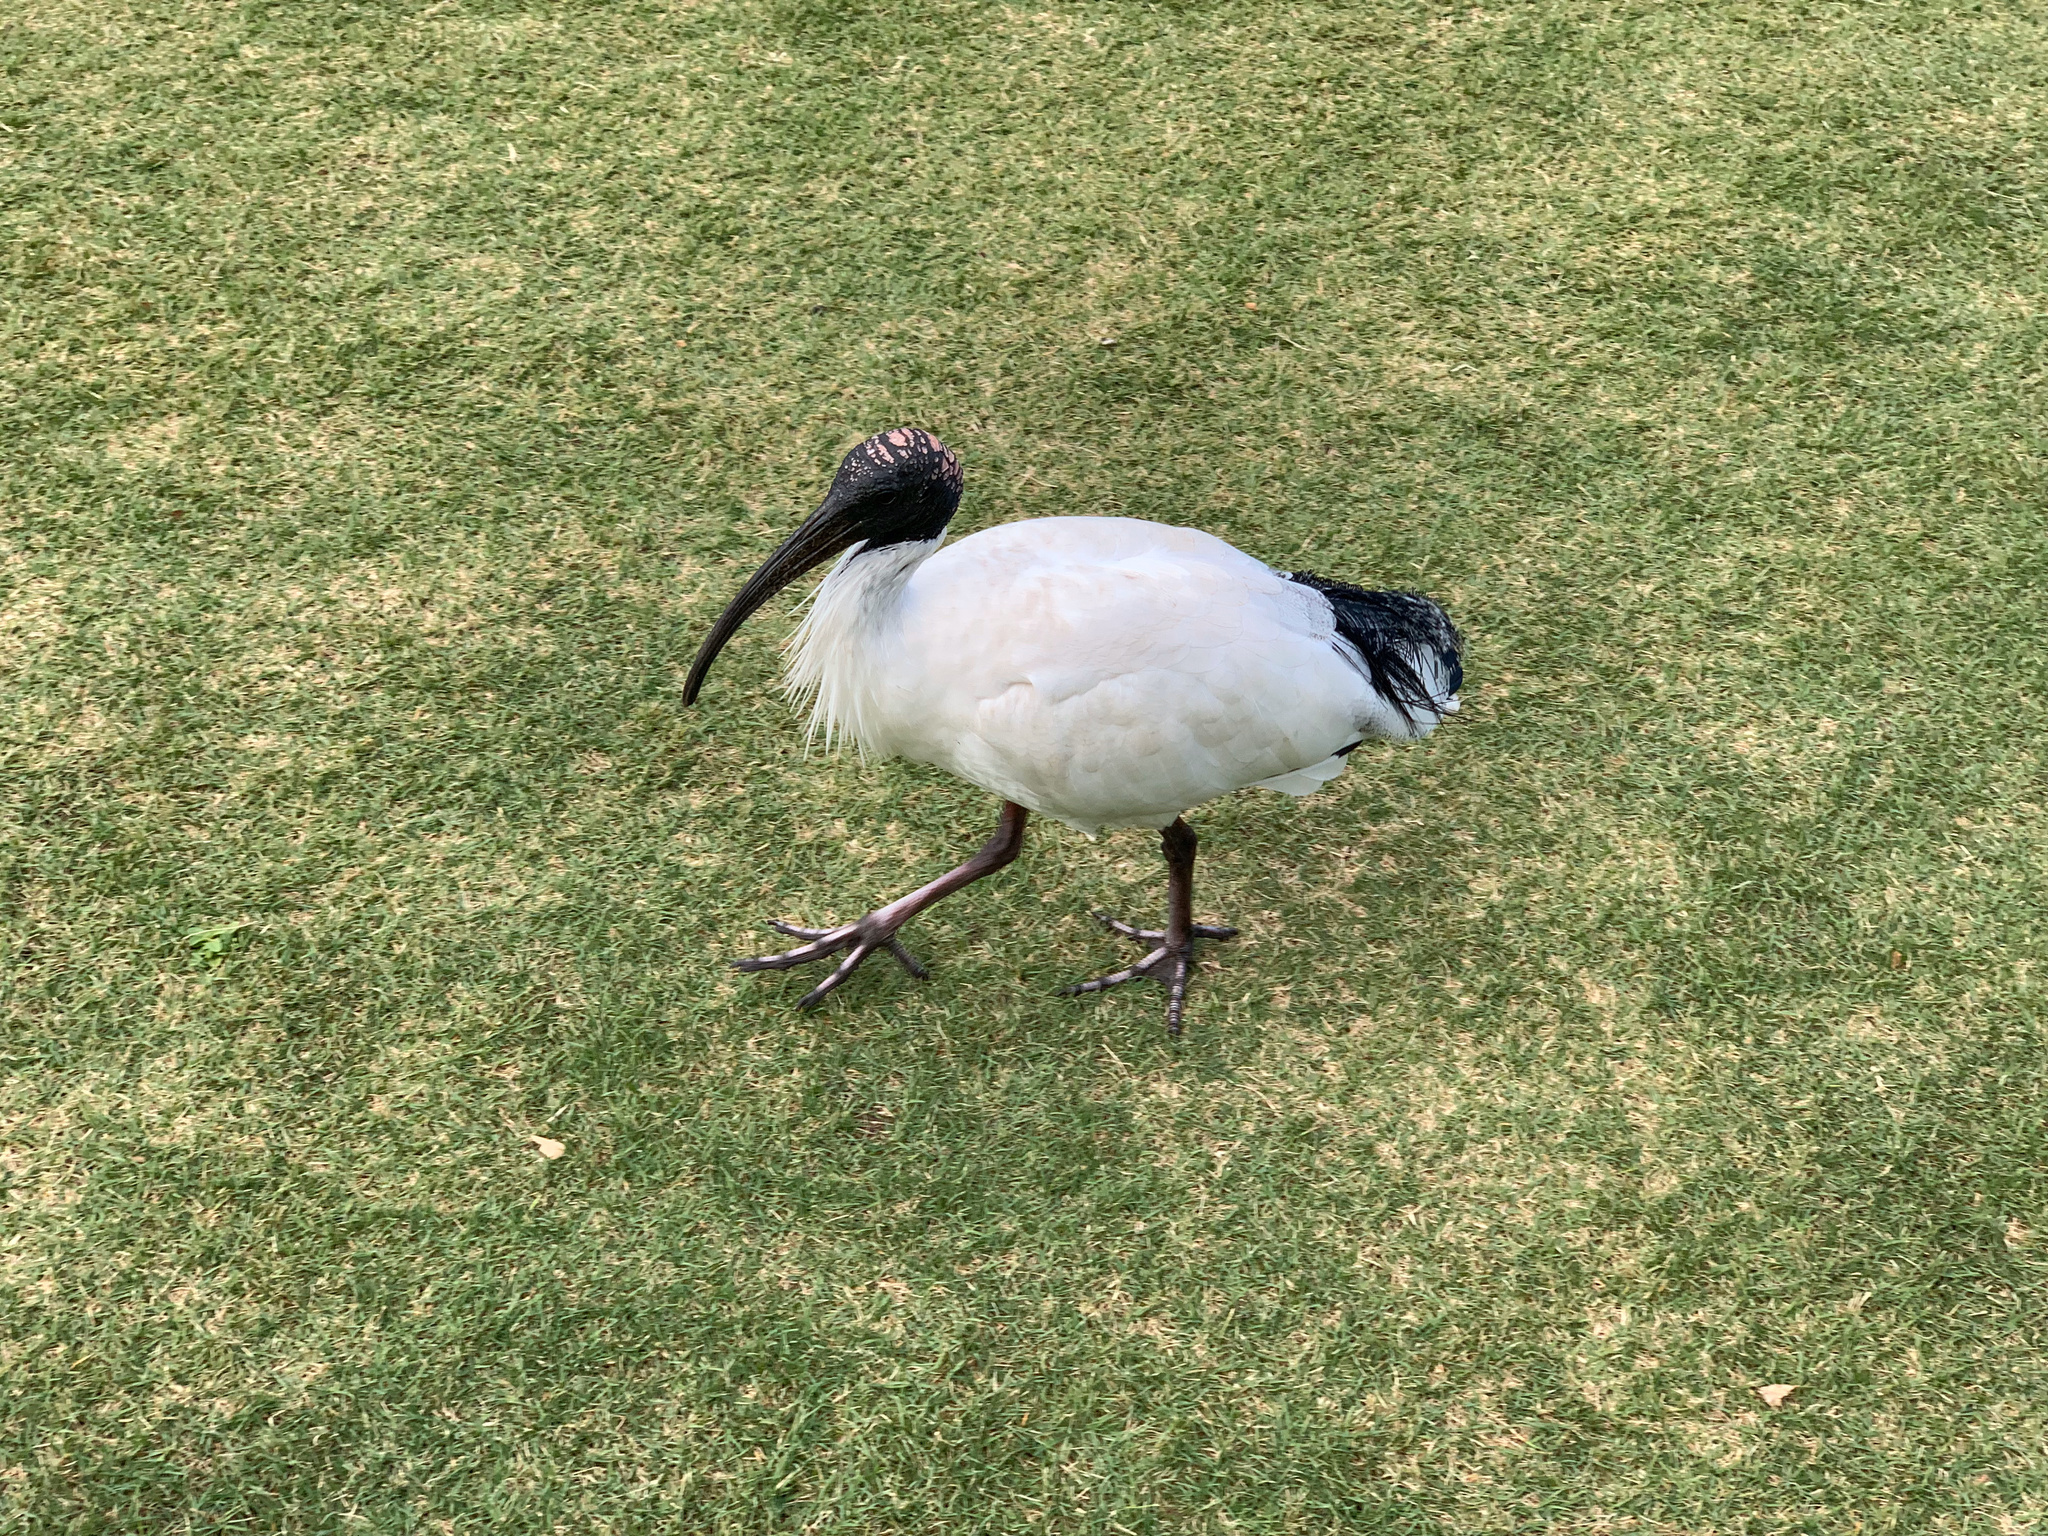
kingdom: Animalia
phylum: Chordata
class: Aves
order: Pelecaniformes
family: Threskiornithidae
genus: Threskiornis
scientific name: Threskiornis molucca
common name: Australian white ibis
